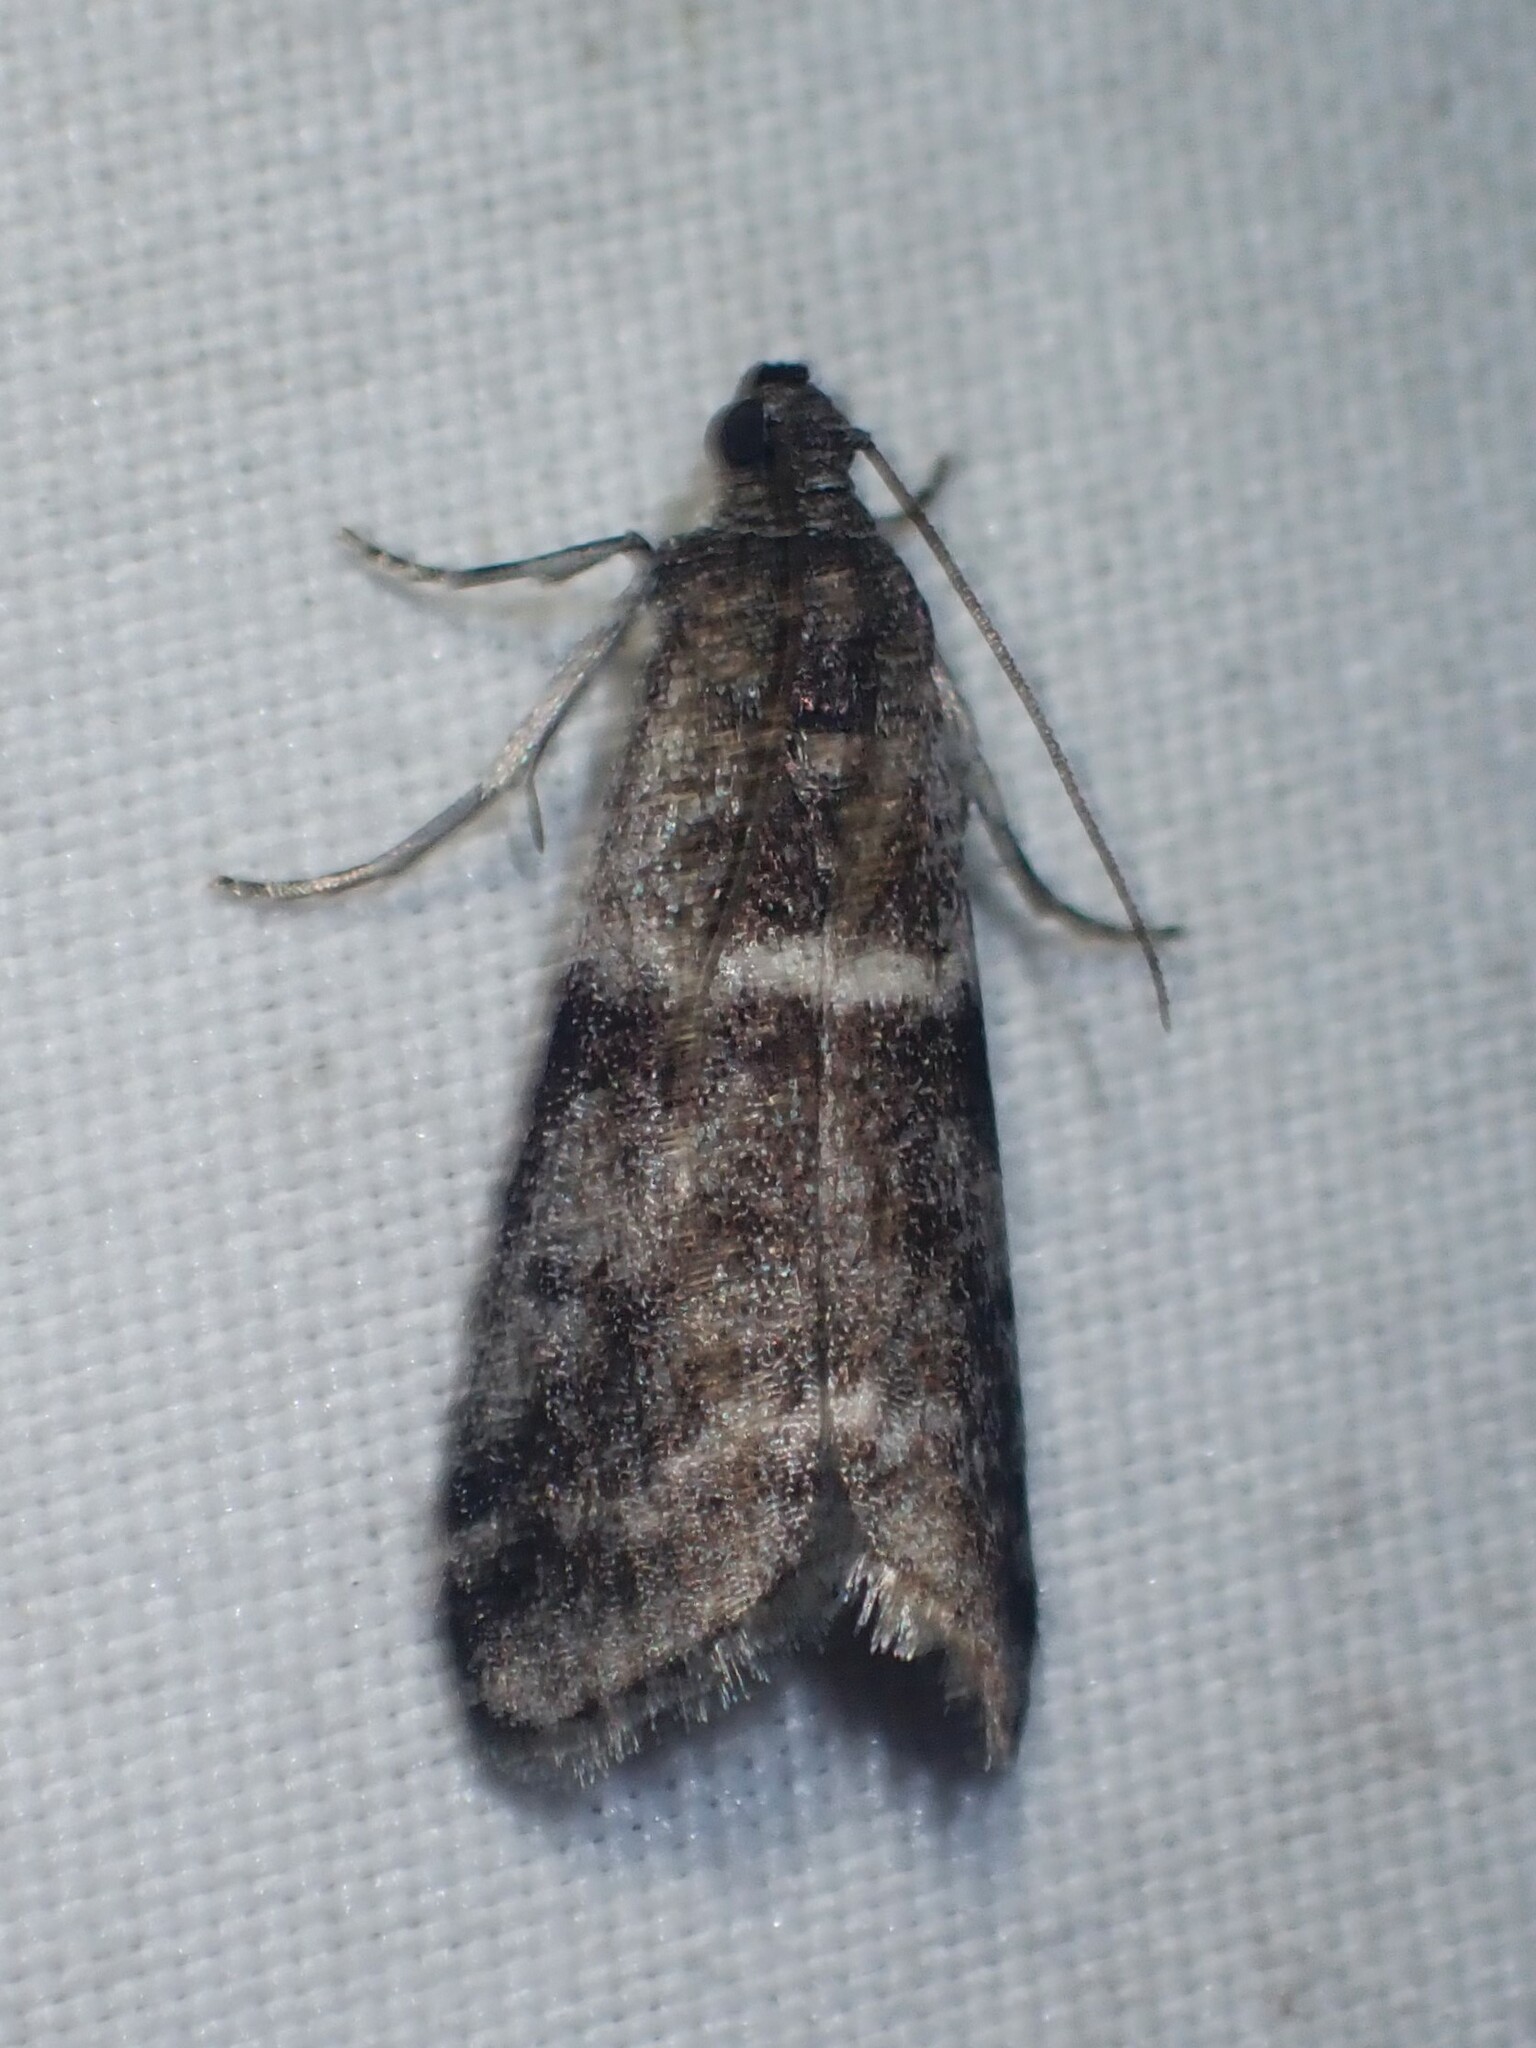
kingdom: Animalia
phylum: Arthropoda
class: Insecta
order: Lepidoptera
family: Pyralidae
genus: Apomyelois
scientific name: Apomyelois bistriatella
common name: Heath knot-horn
